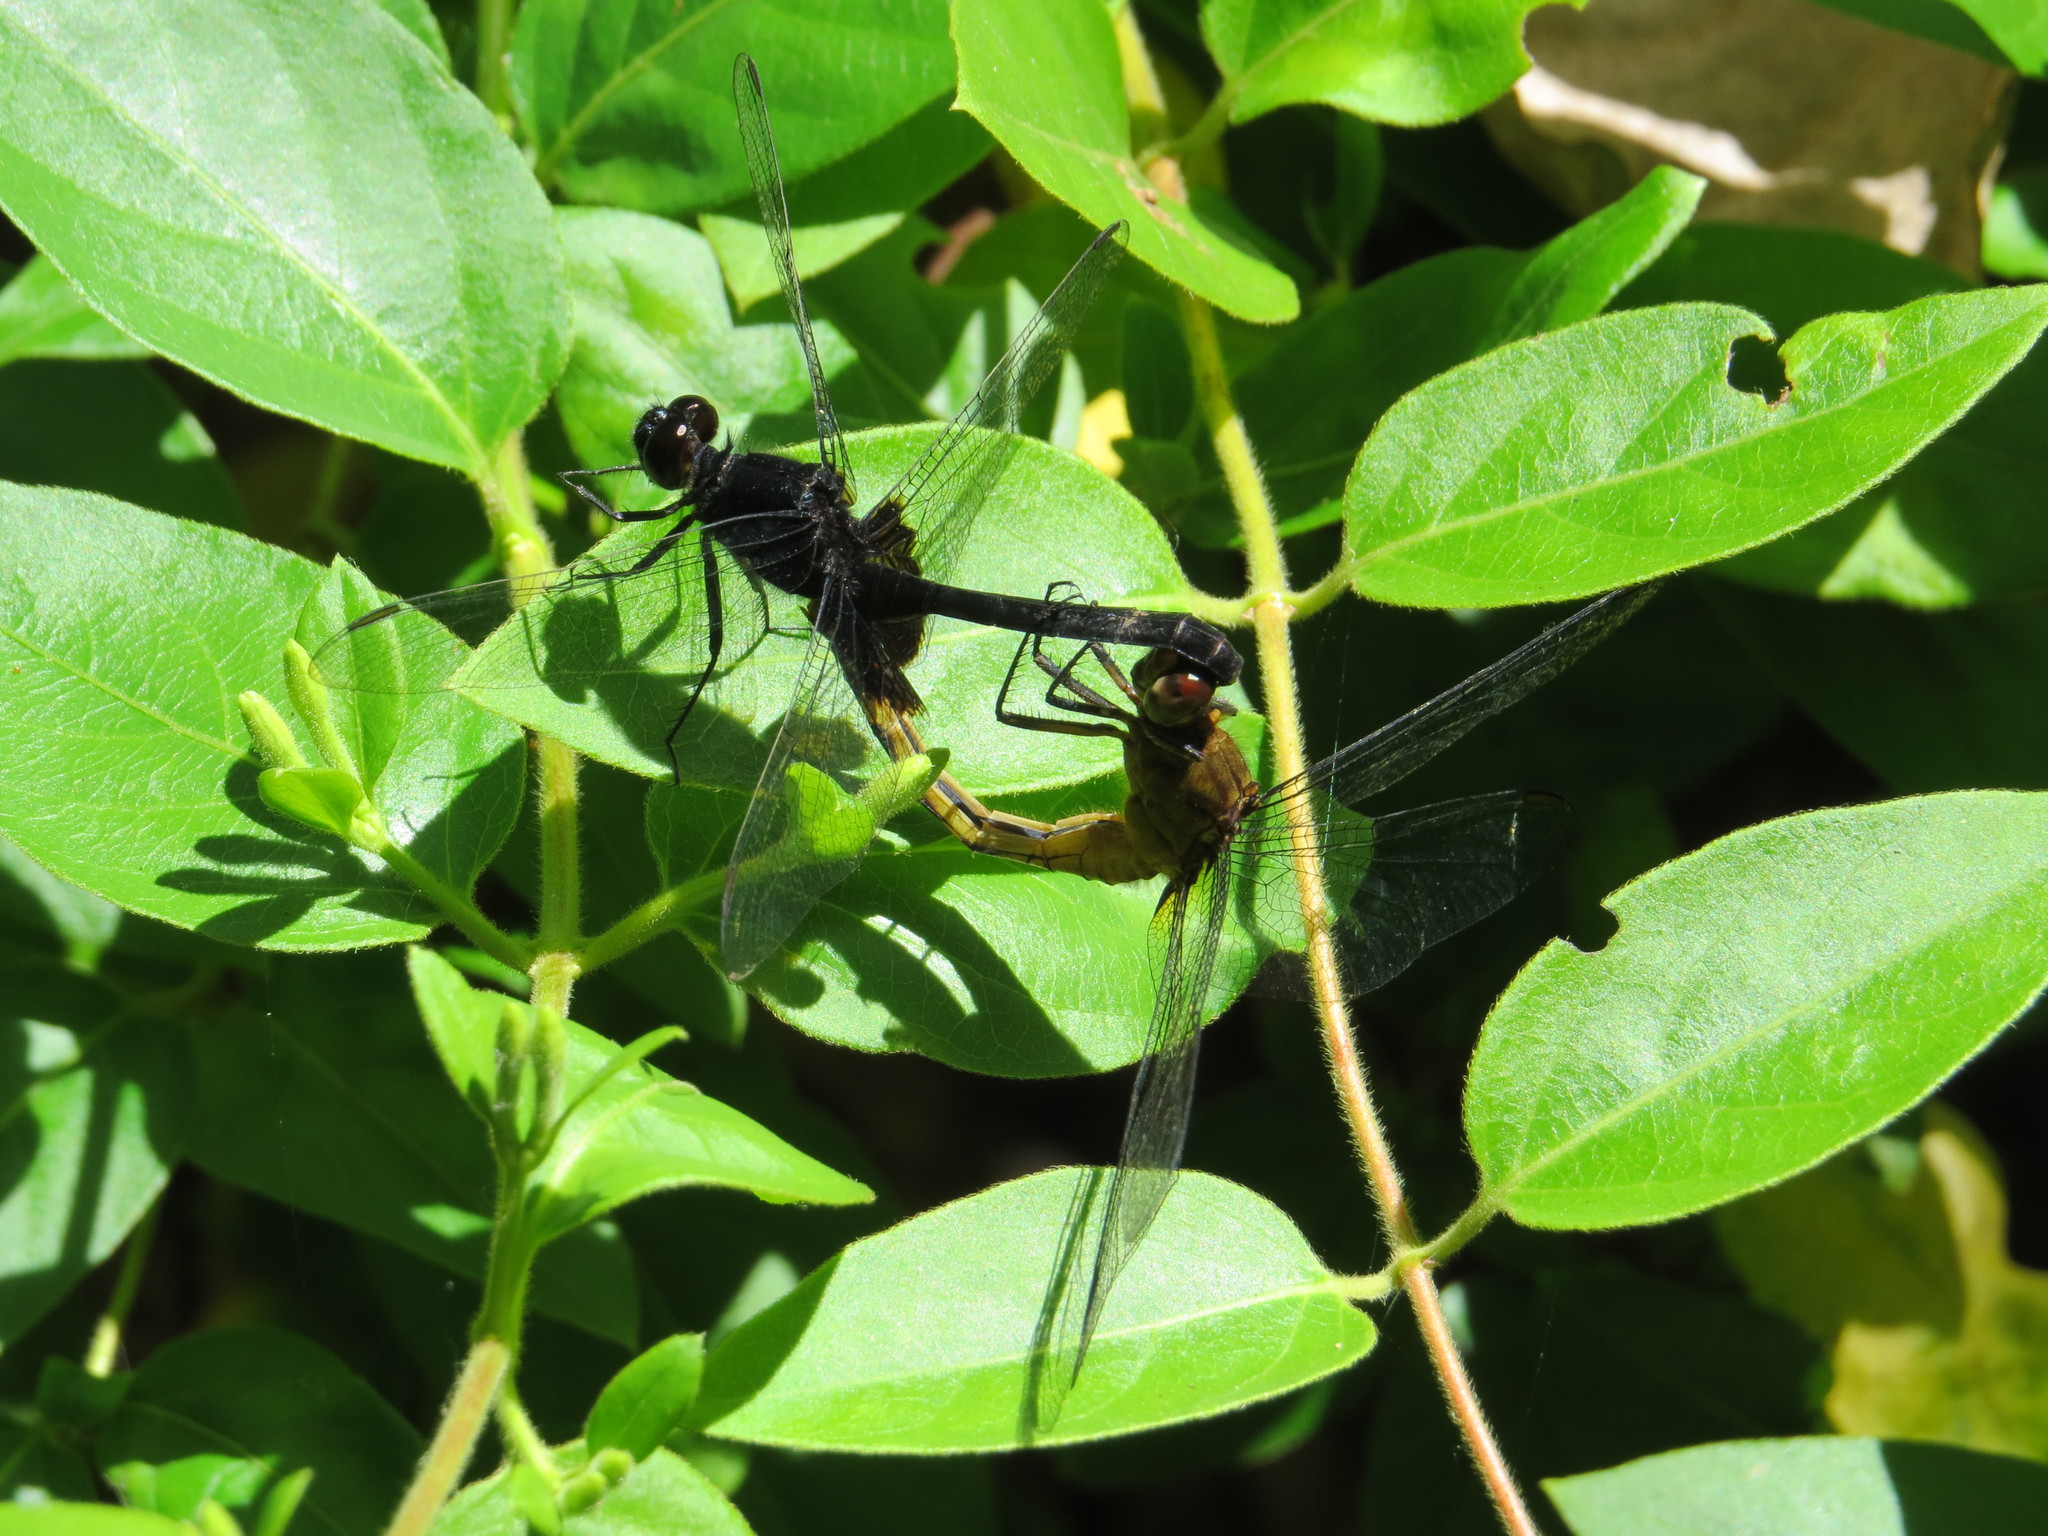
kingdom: Animalia
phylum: Arthropoda
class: Insecta
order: Odonata
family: Libellulidae
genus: Erythemis
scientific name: Erythemis attala
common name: Black pondhawk
